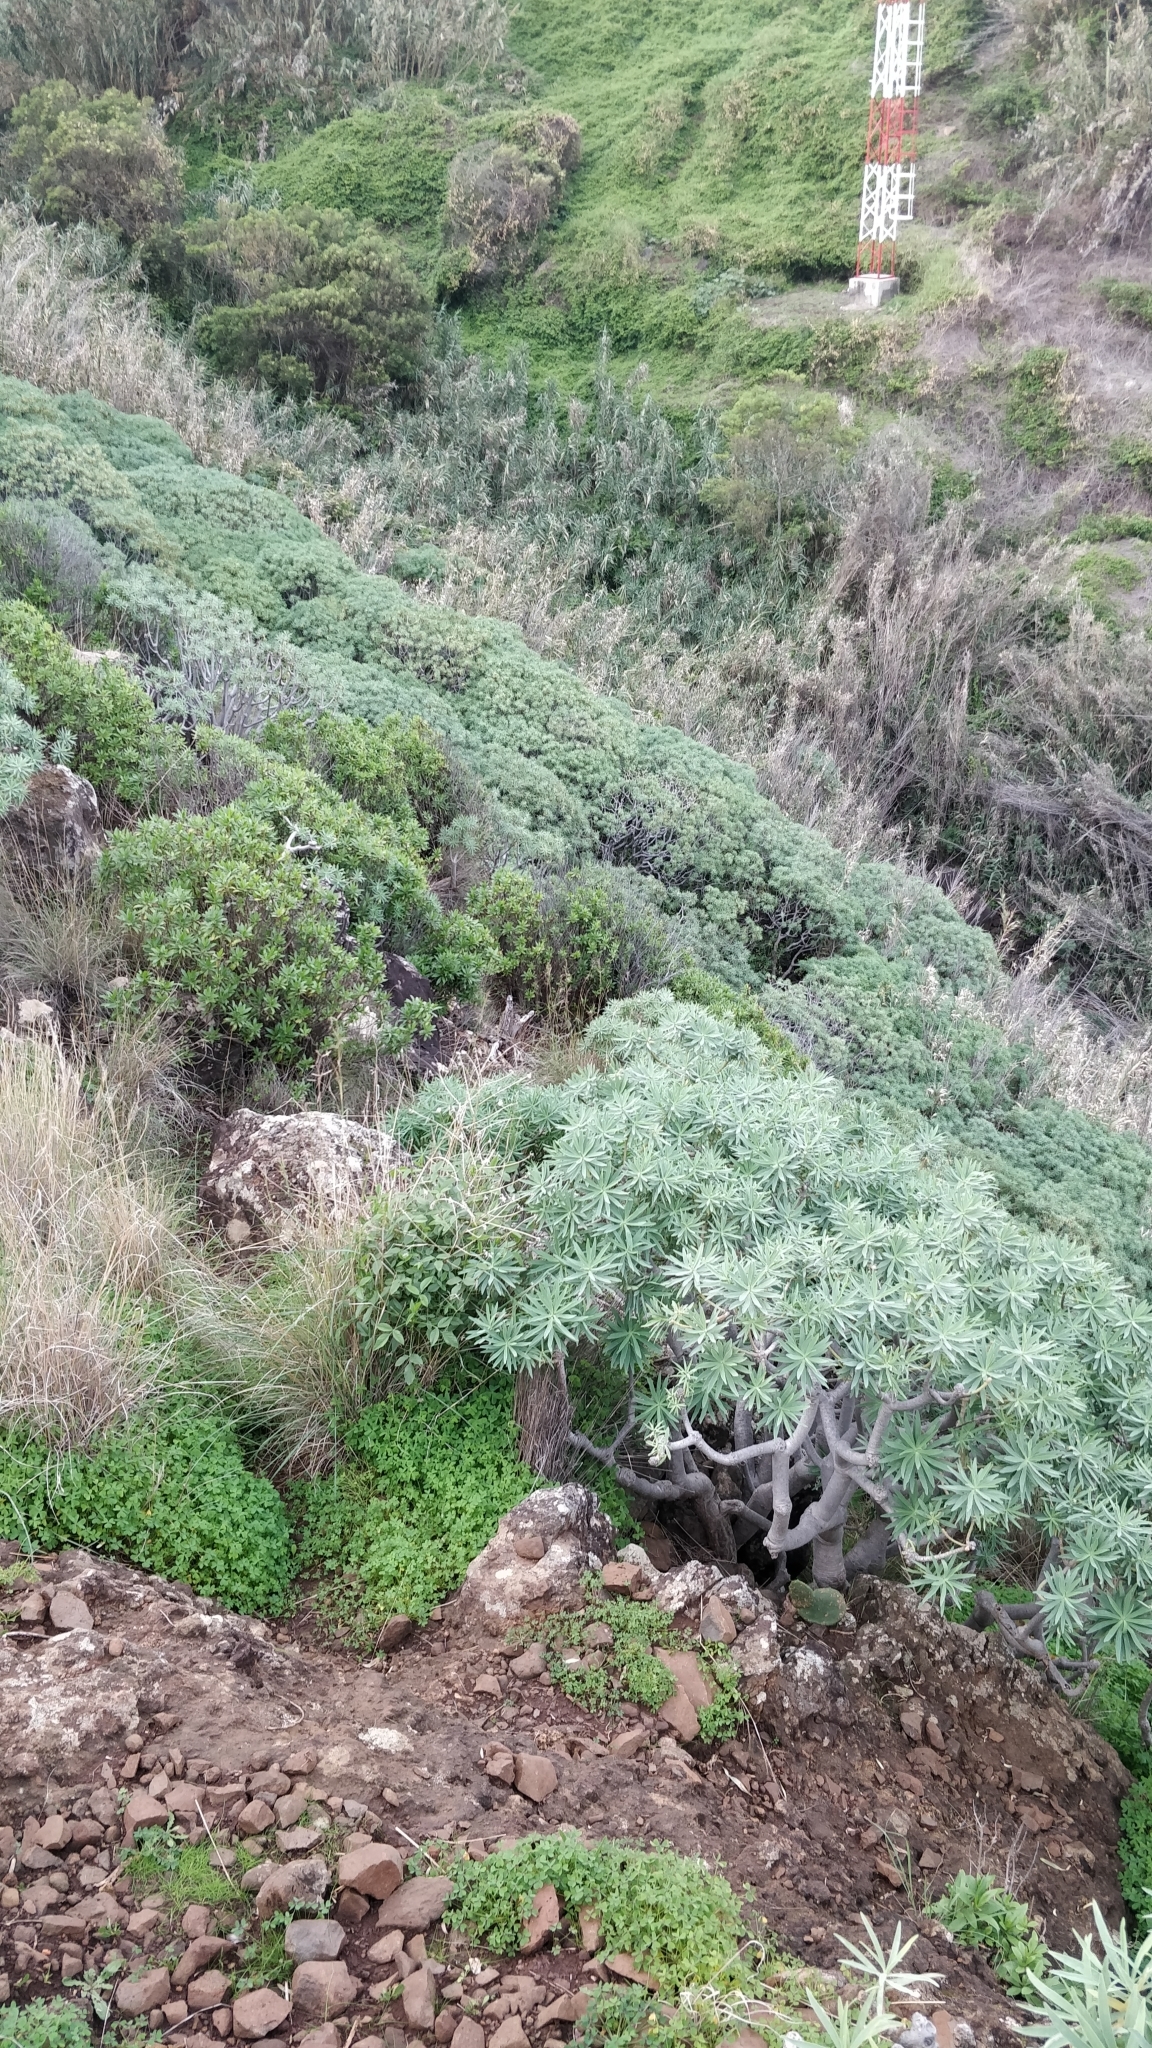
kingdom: Plantae
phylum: Tracheophyta
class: Magnoliopsida
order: Malpighiales
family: Euphorbiaceae
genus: Euphorbia
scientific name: Euphorbia piscatoria
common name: Fish-stunning spurge
